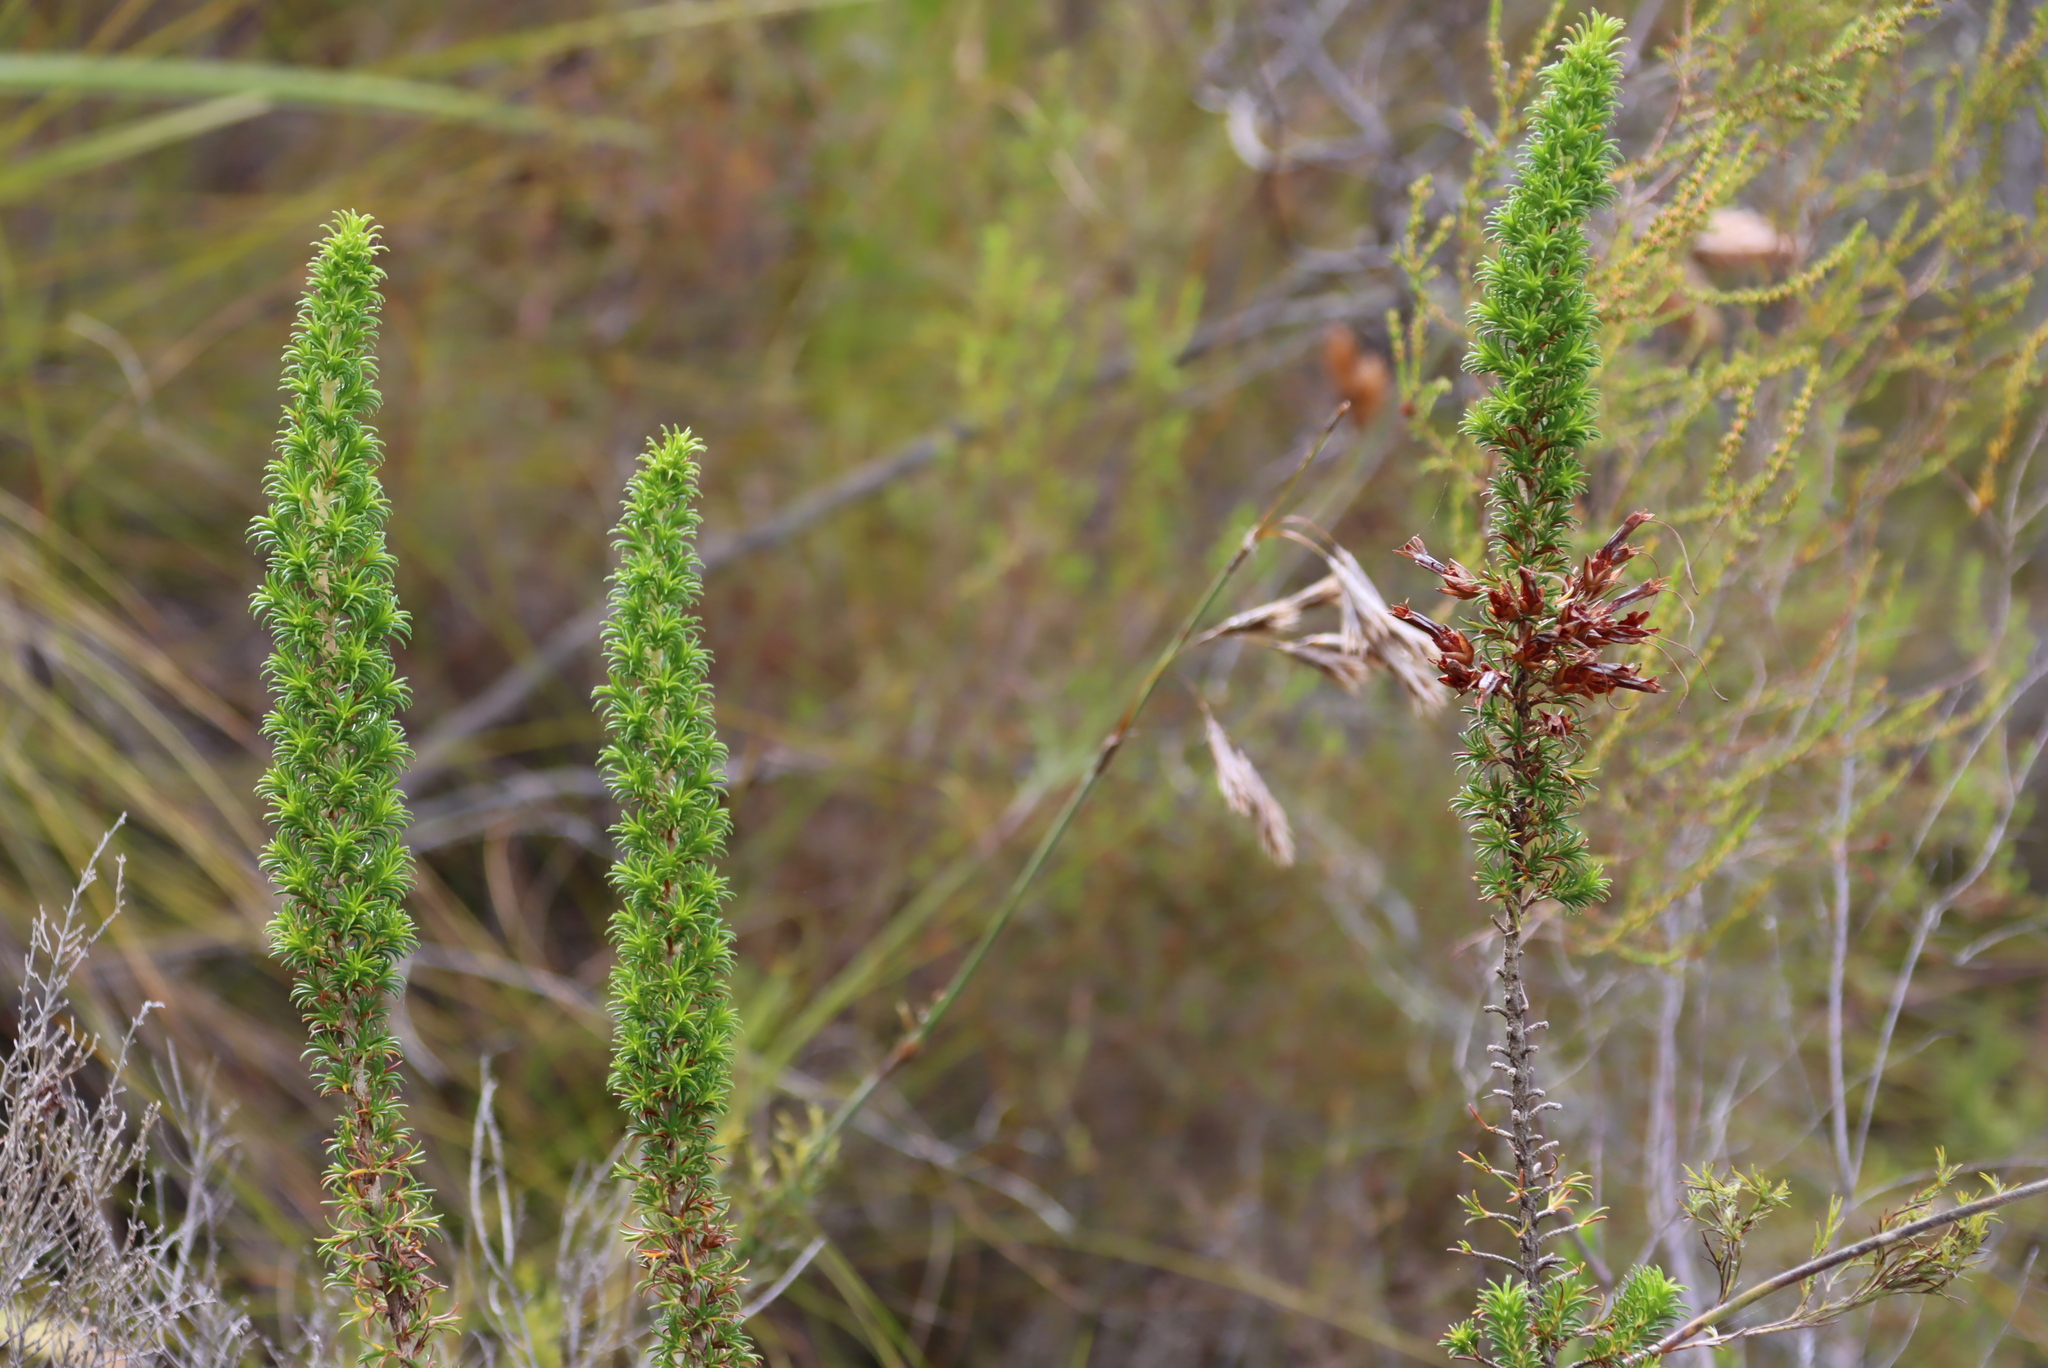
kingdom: Plantae
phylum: Tracheophyta
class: Magnoliopsida
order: Ericales
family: Ericaceae
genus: Erica
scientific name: Erica coccinea
